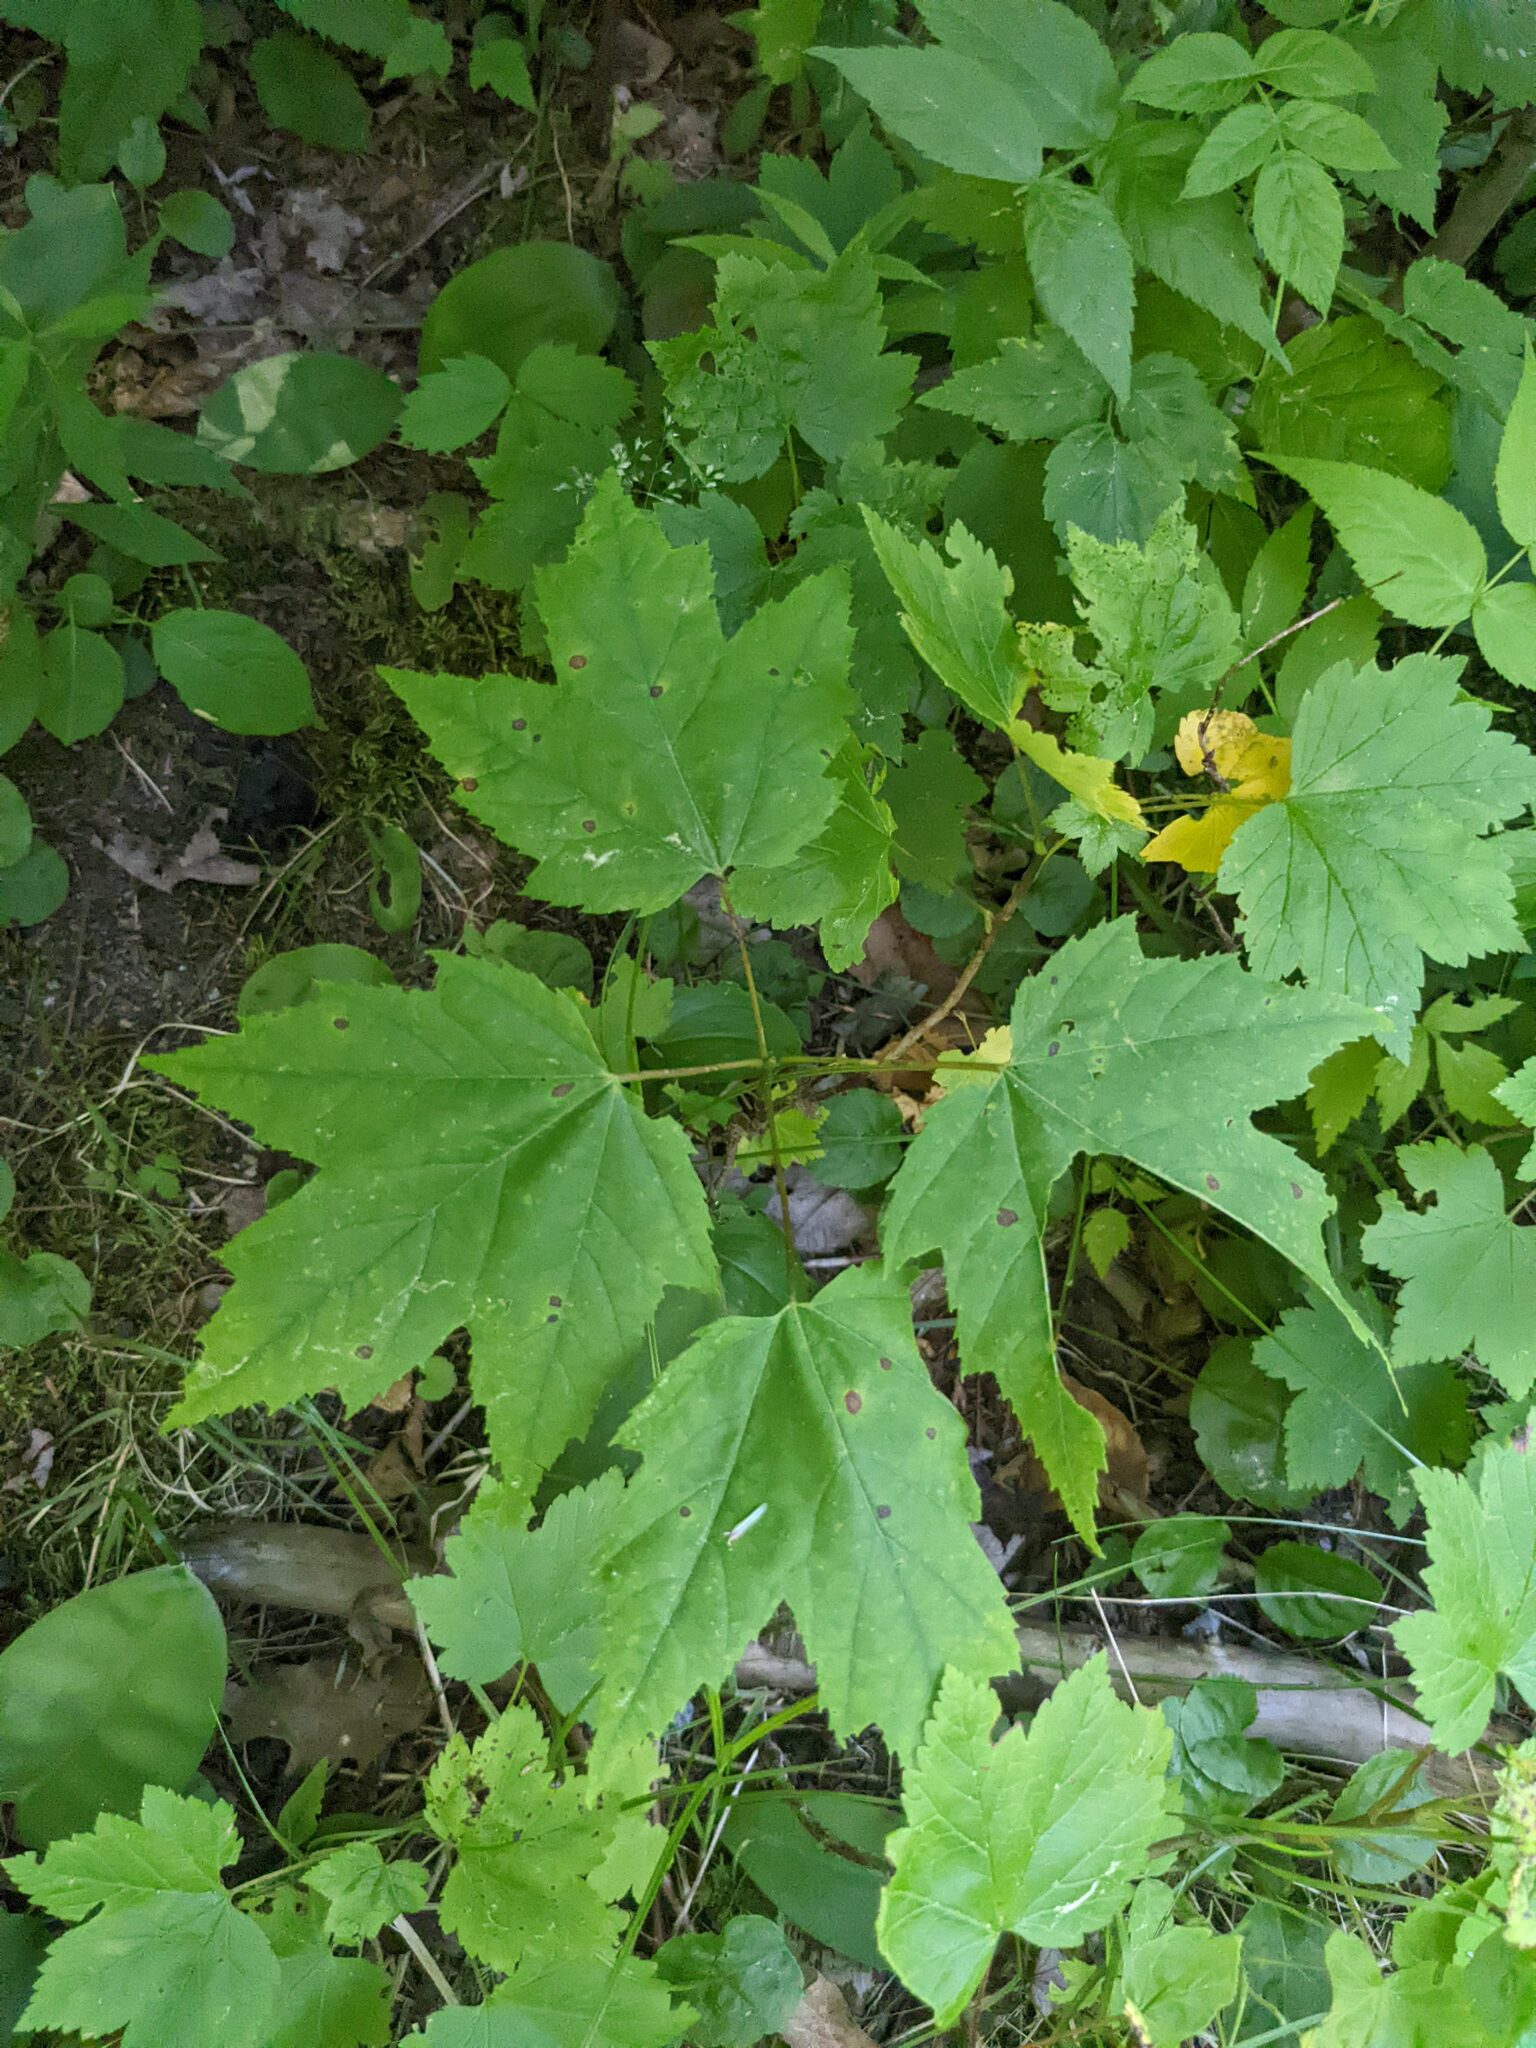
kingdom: Plantae
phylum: Tracheophyta
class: Magnoliopsida
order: Sapindales
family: Sapindaceae
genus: Acer
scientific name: Acer rubrum
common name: Red maple
